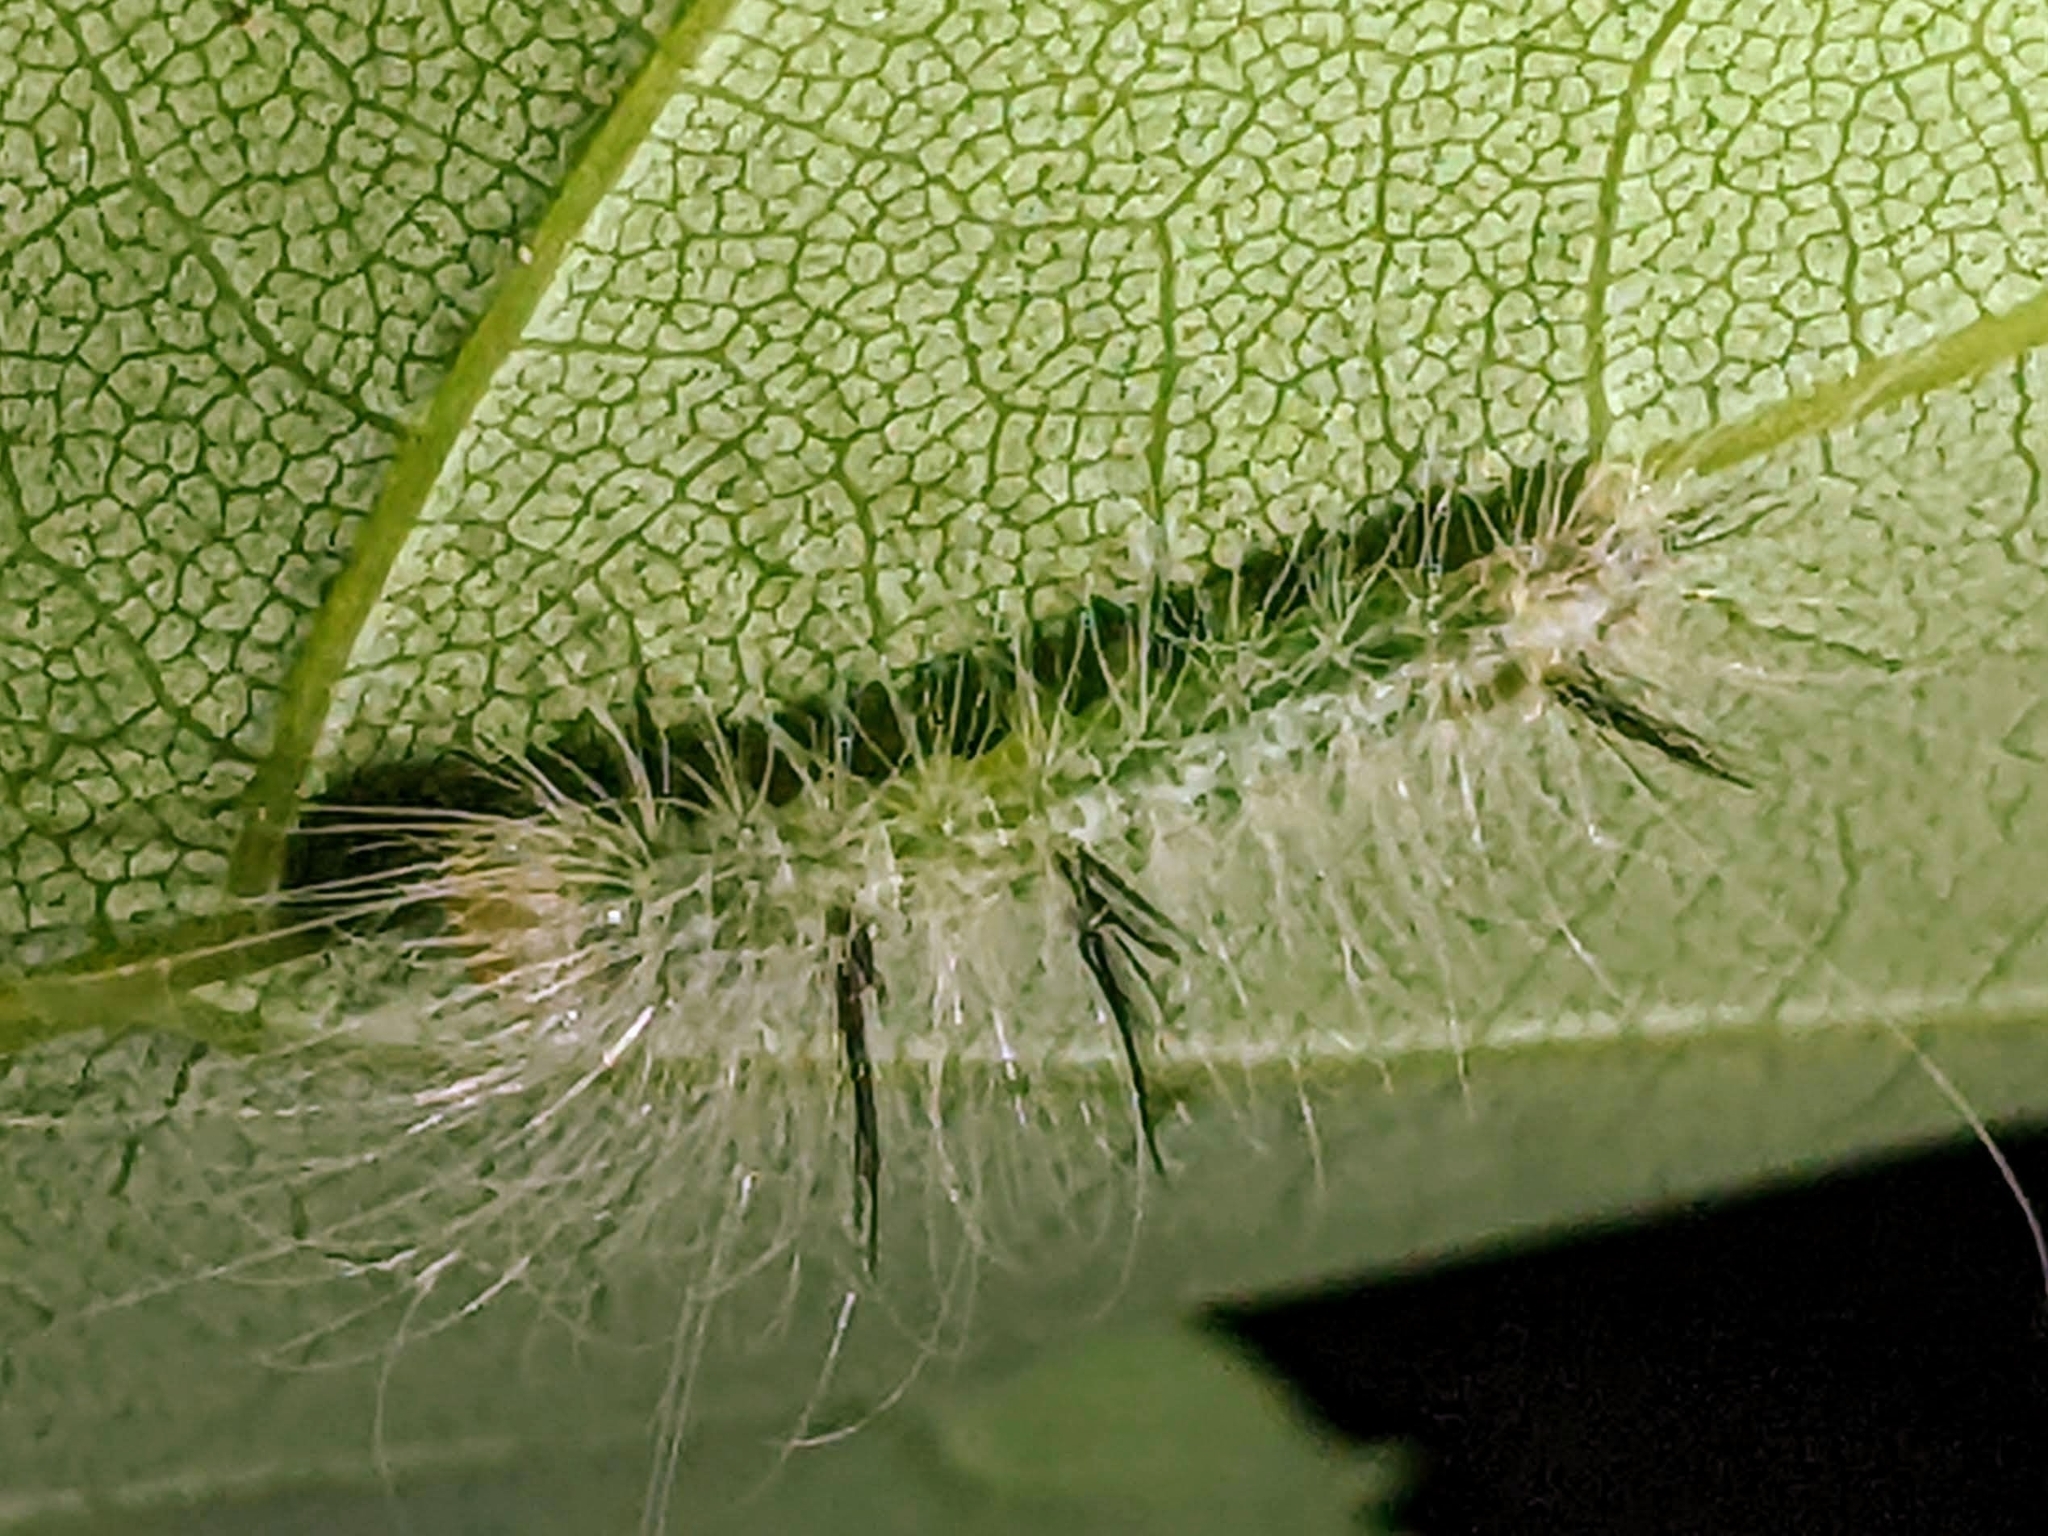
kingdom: Animalia
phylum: Arthropoda
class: Insecta
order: Lepidoptera
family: Noctuidae
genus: Acronicta
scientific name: Acronicta americana
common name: American dagger
